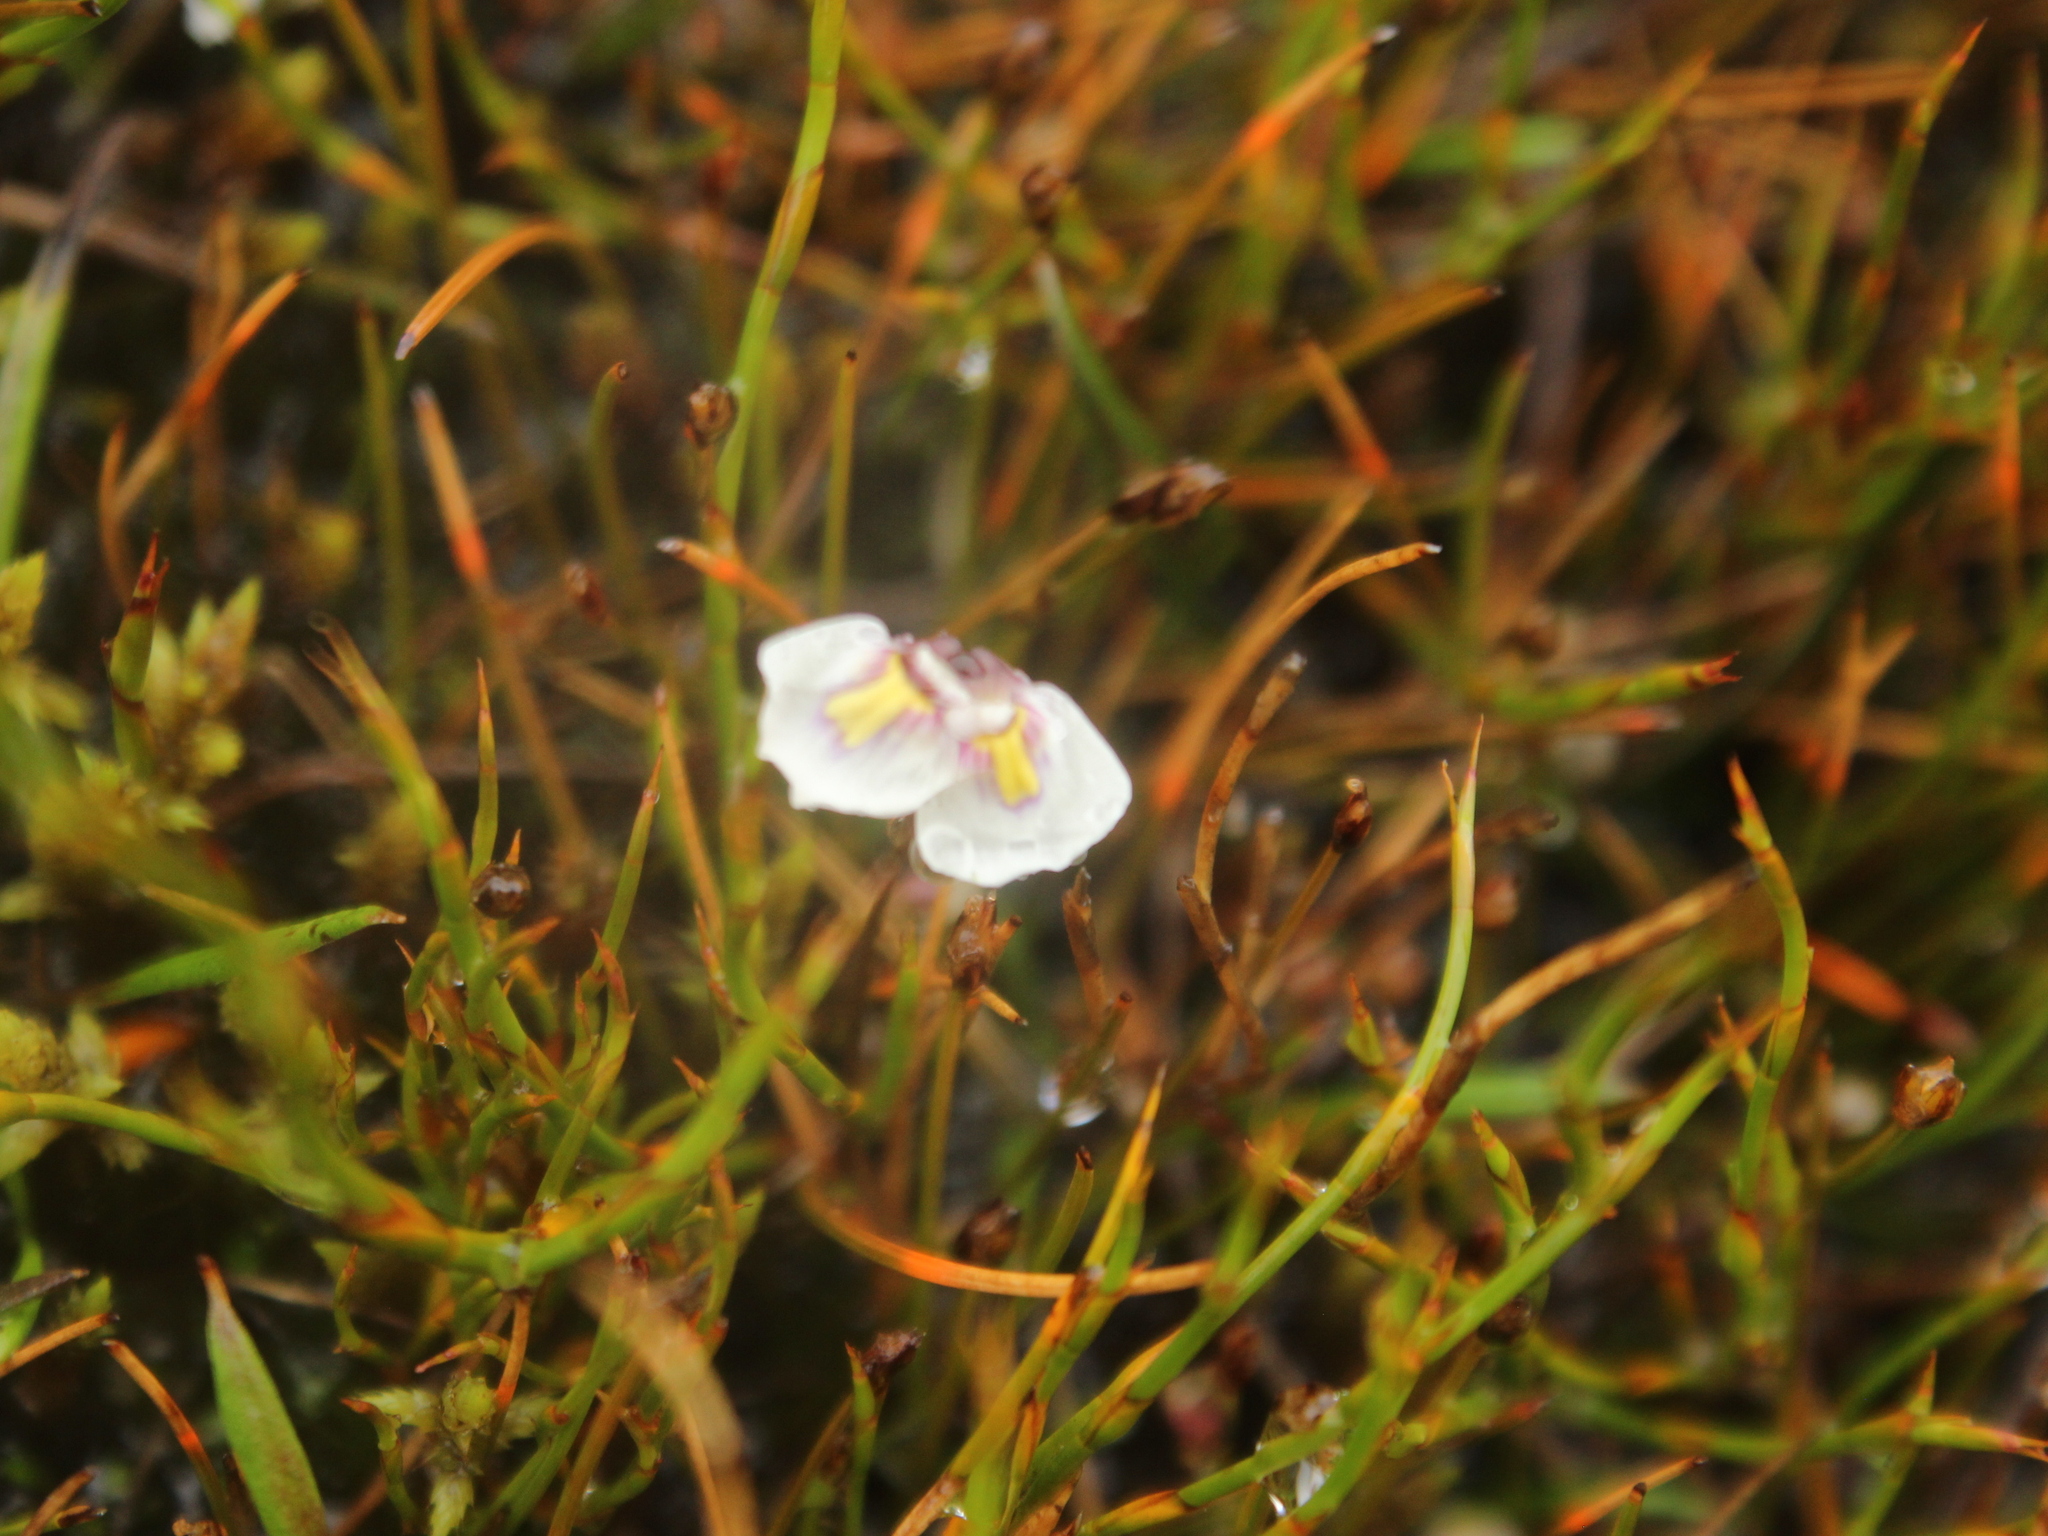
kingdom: Plantae
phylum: Tracheophyta
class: Magnoliopsida
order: Lamiales
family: Lentibulariaceae
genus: Utricularia
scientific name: Utricularia dichotoma
